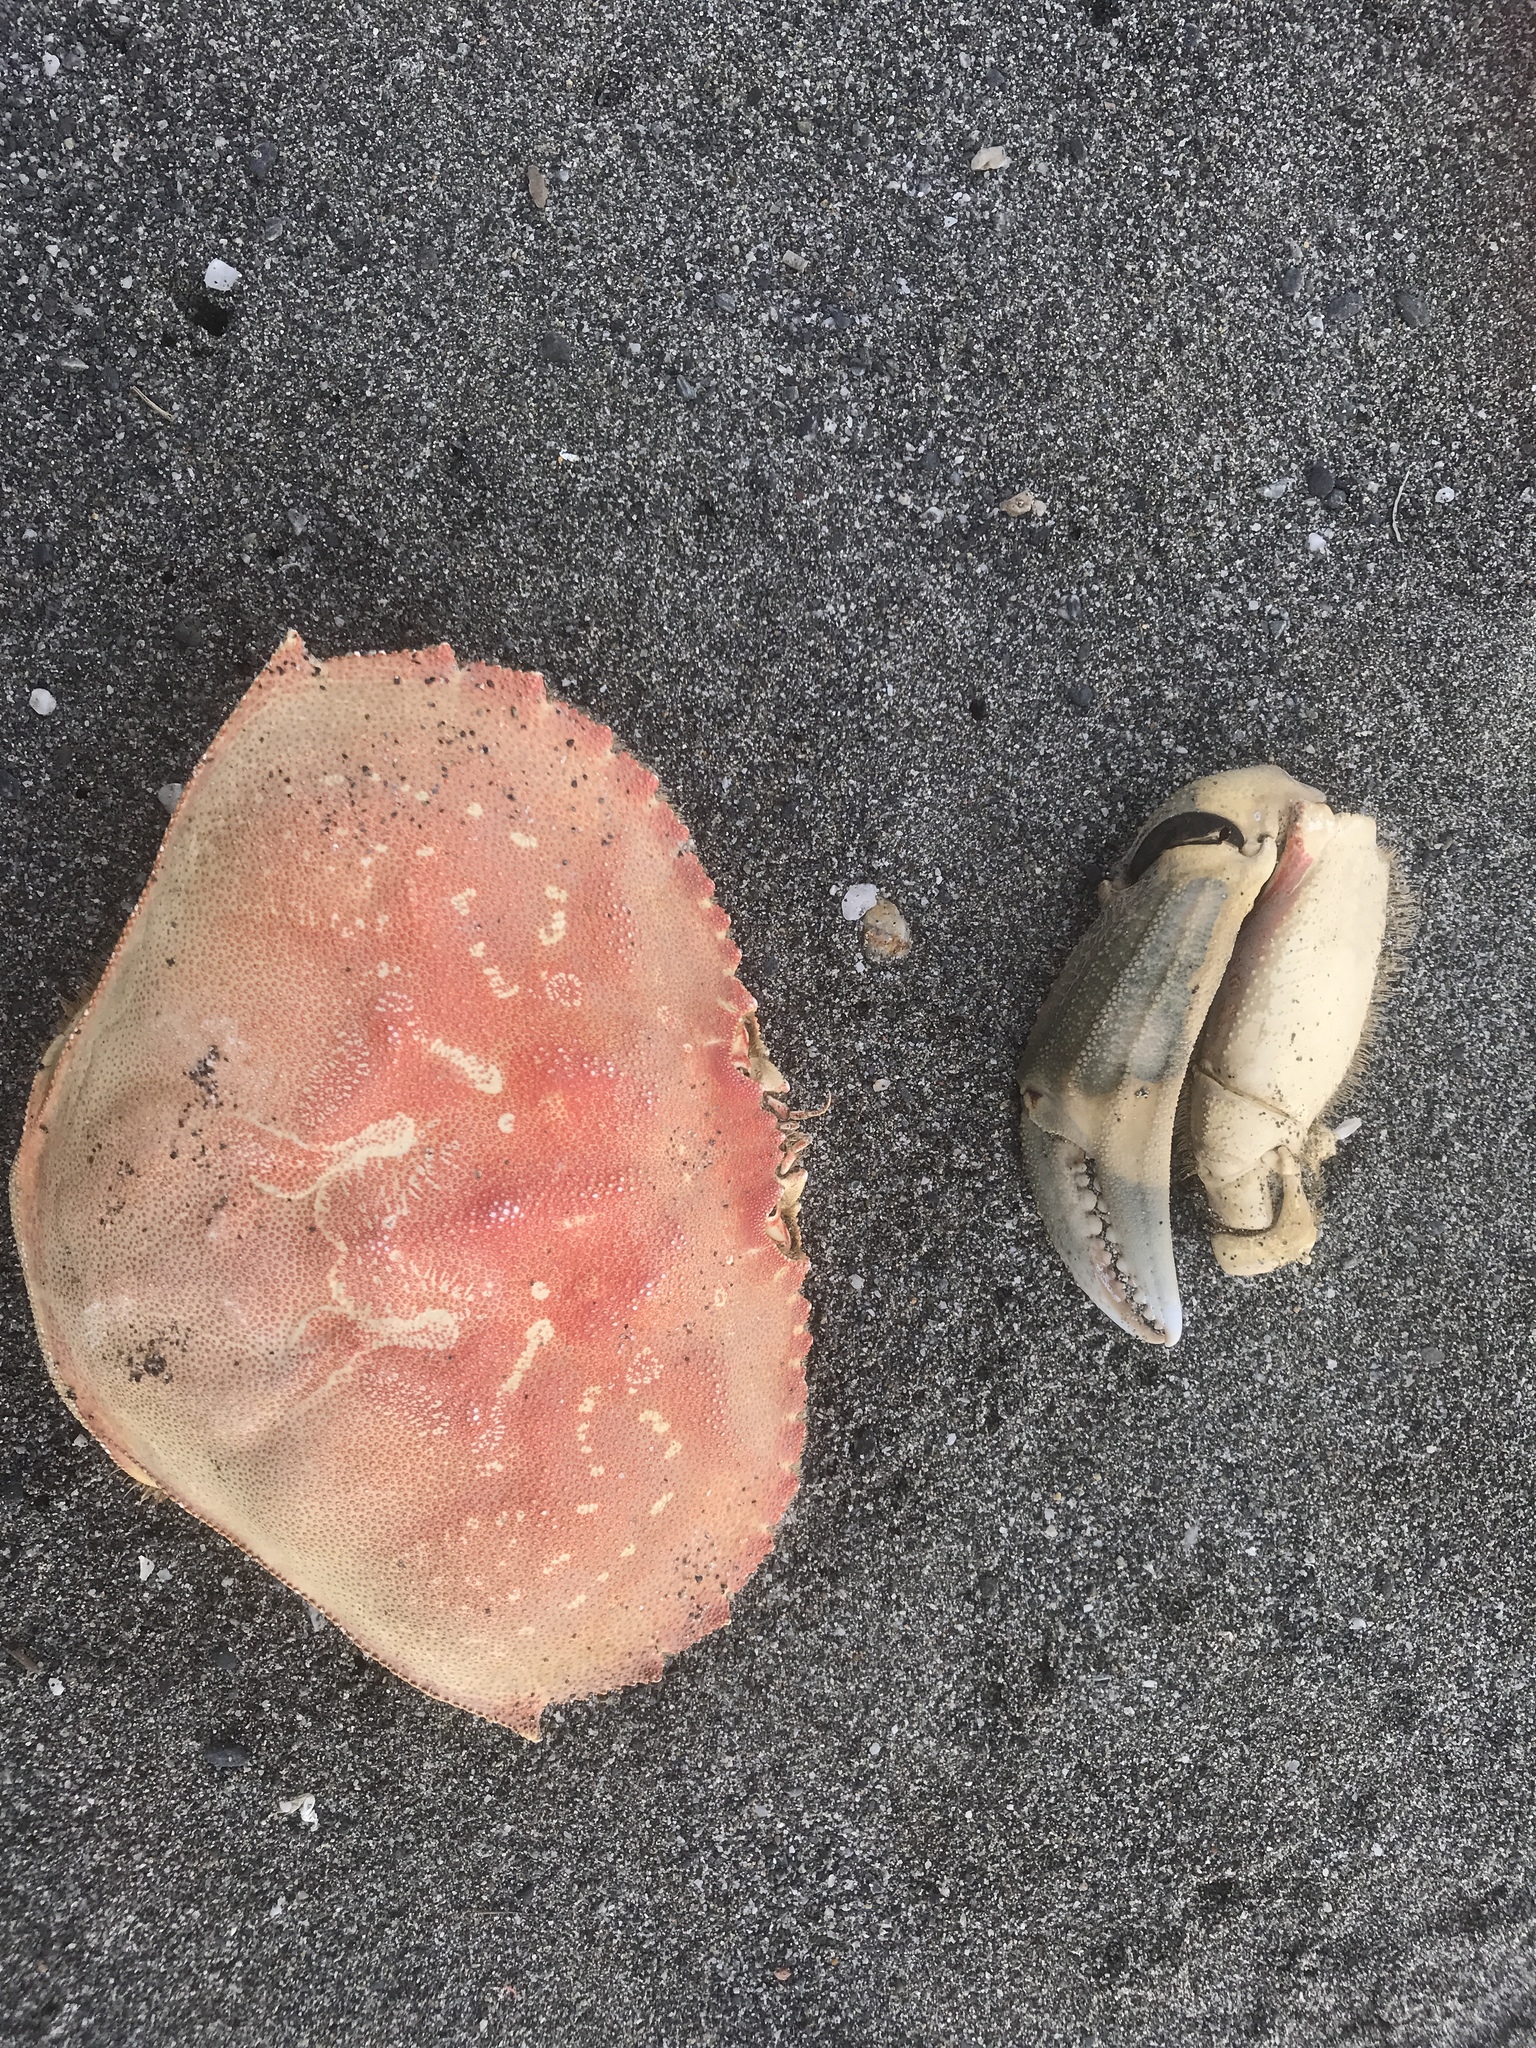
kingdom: Animalia
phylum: Arthropoda
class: Malacostraca
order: Decapoda
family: Cancridae
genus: Metacarcinus
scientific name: Metacarcinus magister
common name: Californian crab
